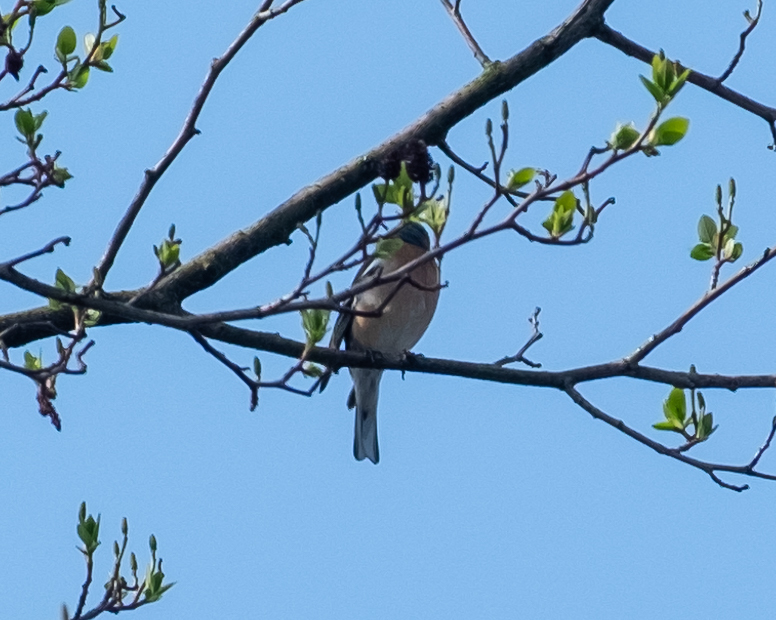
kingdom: Animalia
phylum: Chordata
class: Aves
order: Passeriformes
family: Fringillidae
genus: Fringilla
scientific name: Fringilla coelebs
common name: Common chaffinch
